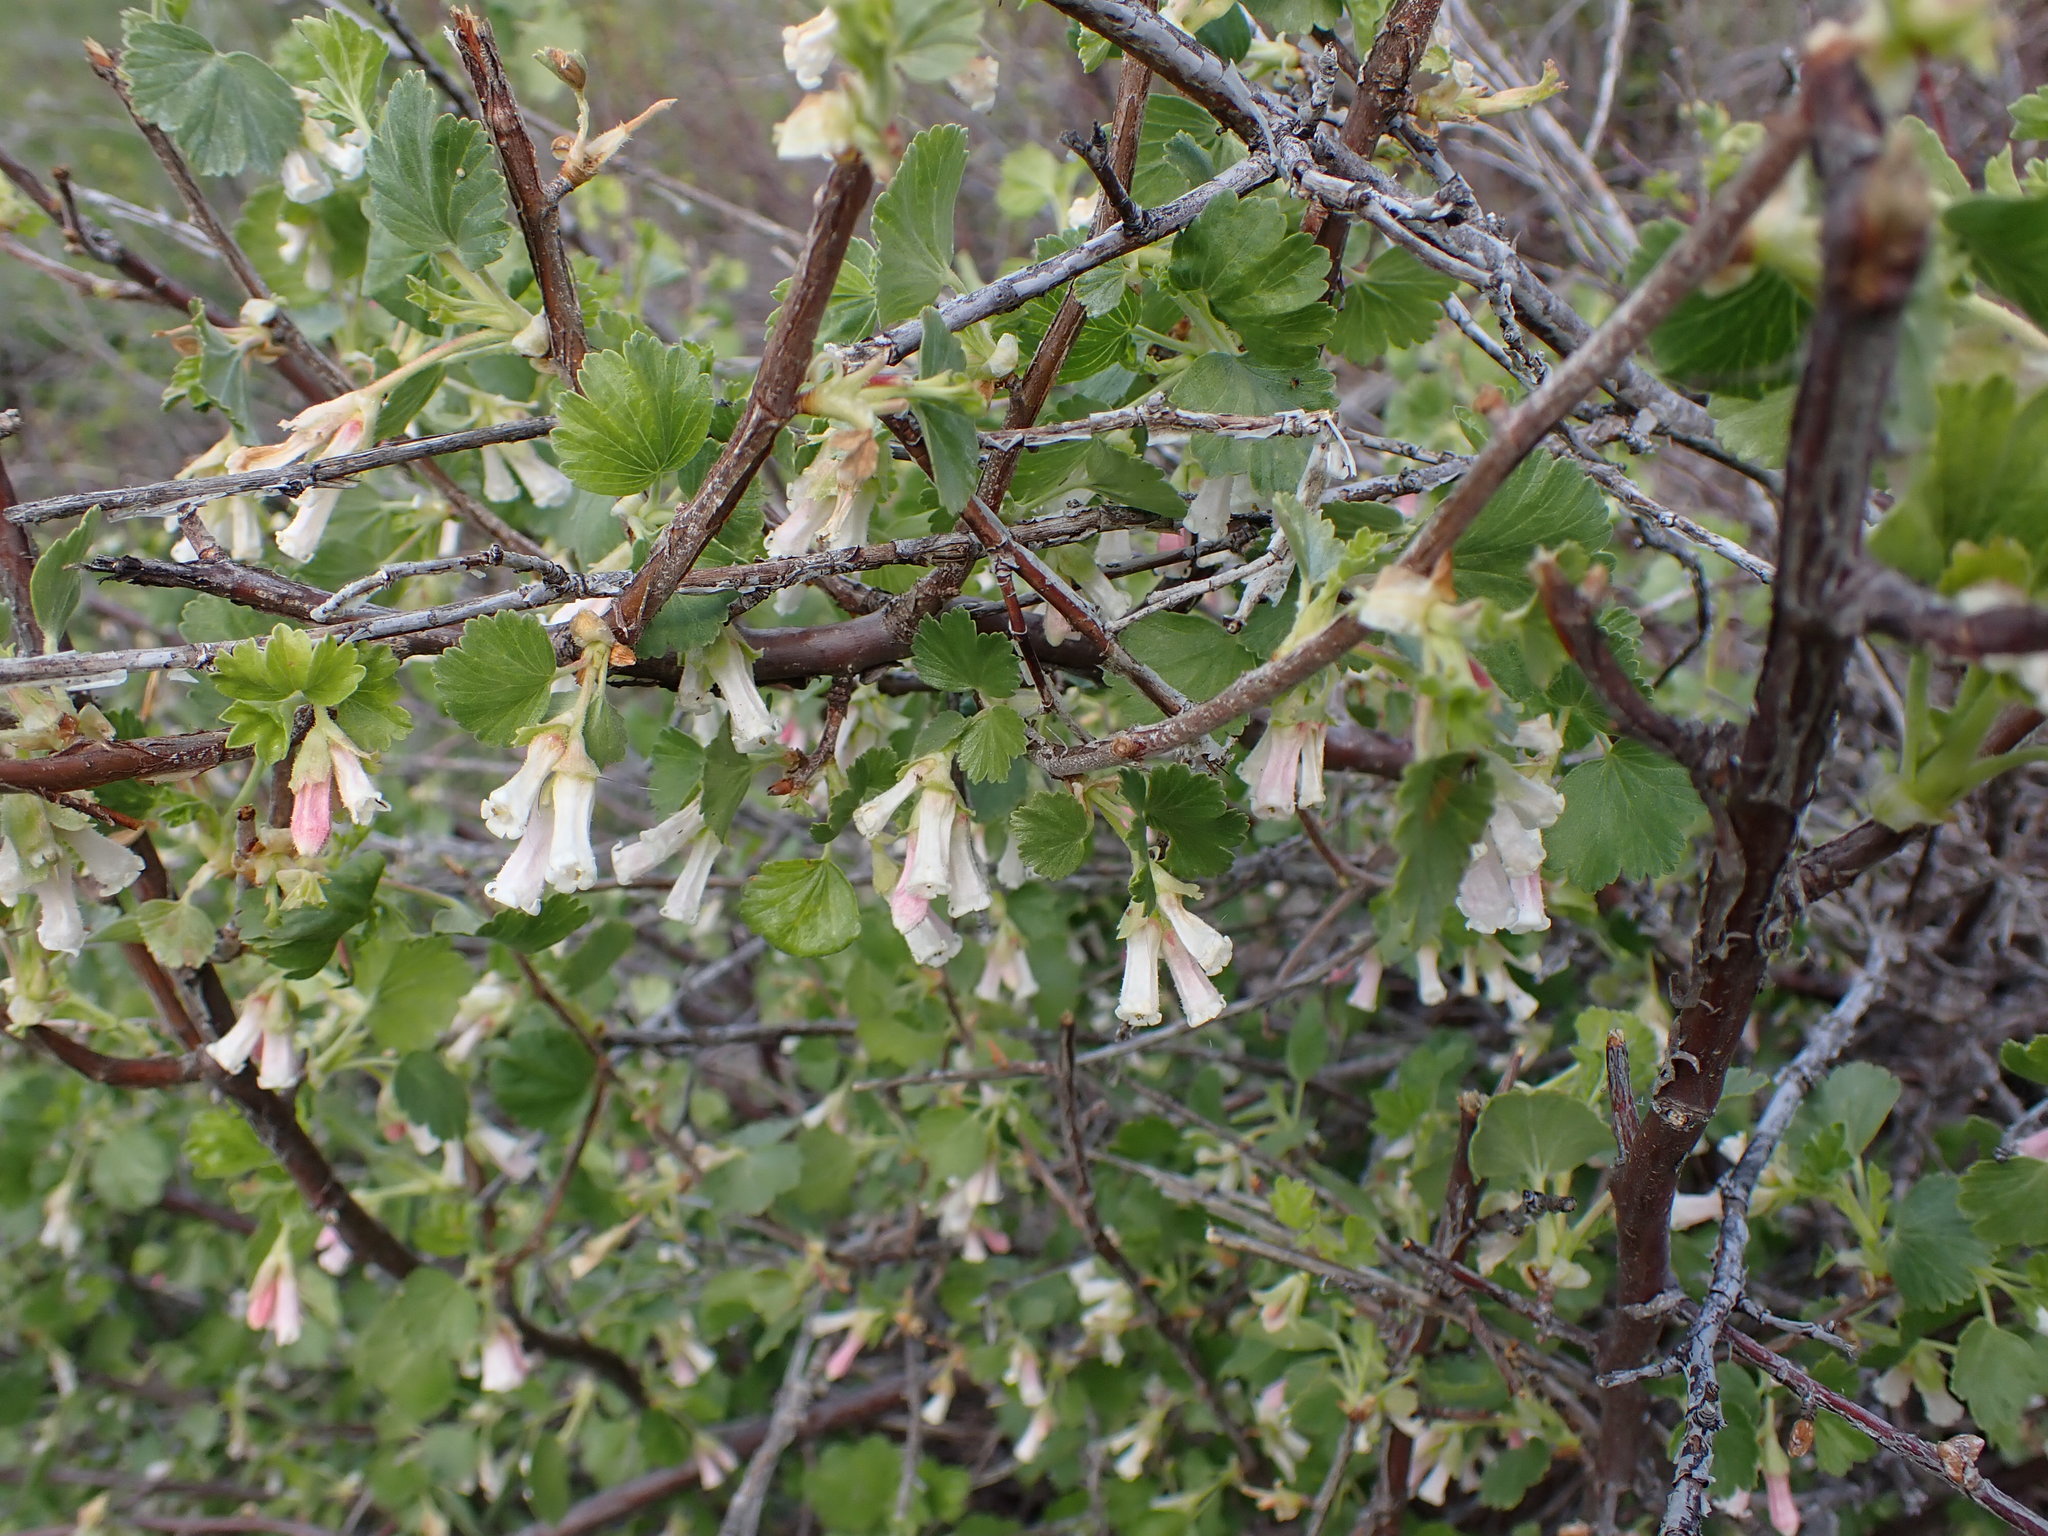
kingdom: Plantae
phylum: Tracheophyta
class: Magnoliopsida
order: Saxifragales
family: Grossulariaceae
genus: Ribes
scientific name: Ribes cereum
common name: Wax currant
